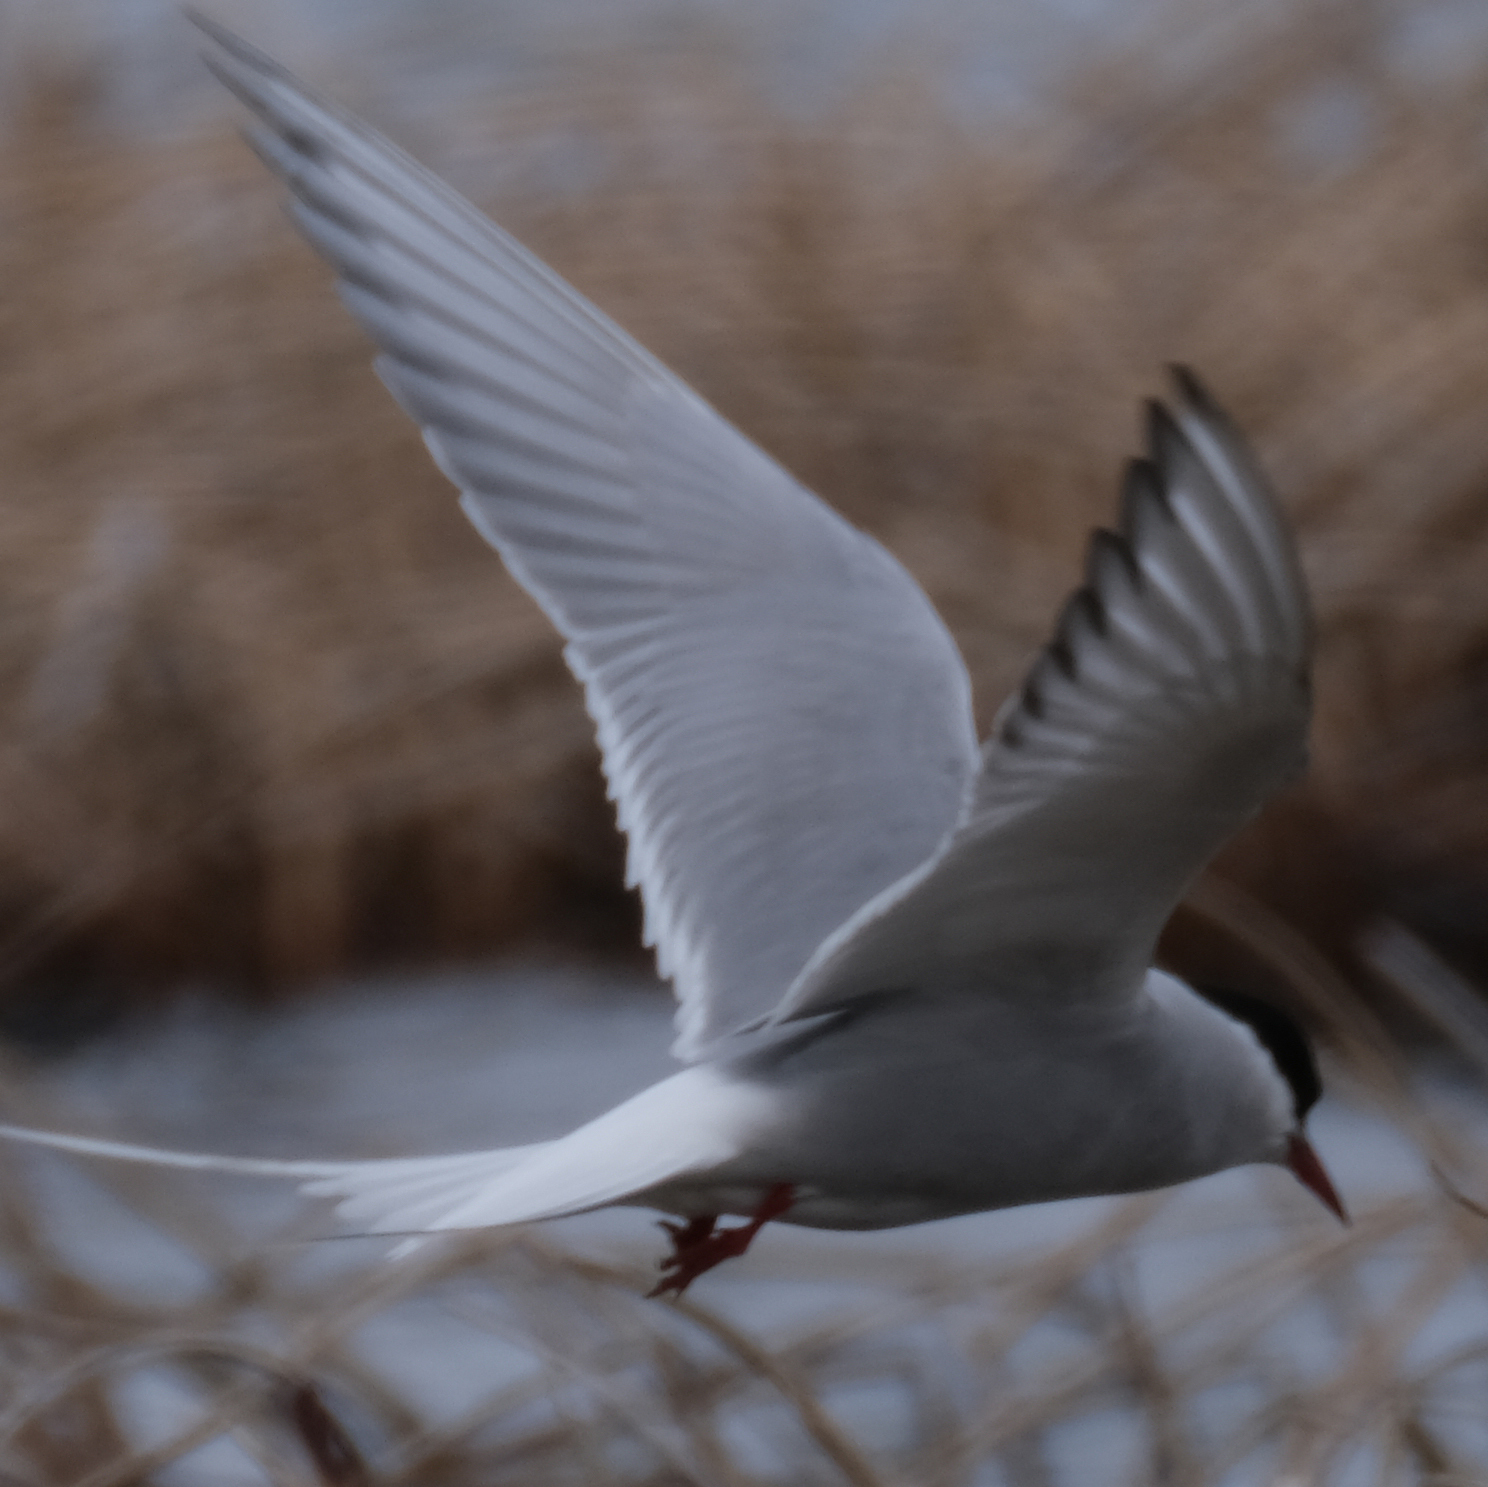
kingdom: Animalia
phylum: Chordata
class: Aves
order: Charadriiformes
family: Laridae
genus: Sterna
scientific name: Sterna paradisaea
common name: Arctic tern
